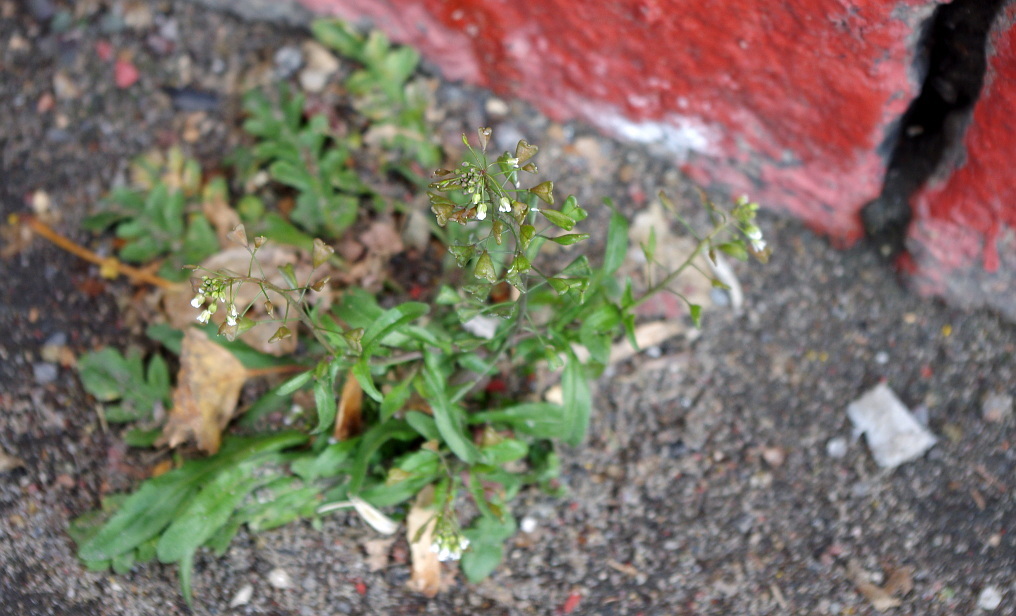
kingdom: Plantae
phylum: Tracheophyta
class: Magnoliopsida
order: Brassicales
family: Brassicaceae
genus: Capsella
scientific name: Capsella bursa-pastoris
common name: Shepherd's purse
